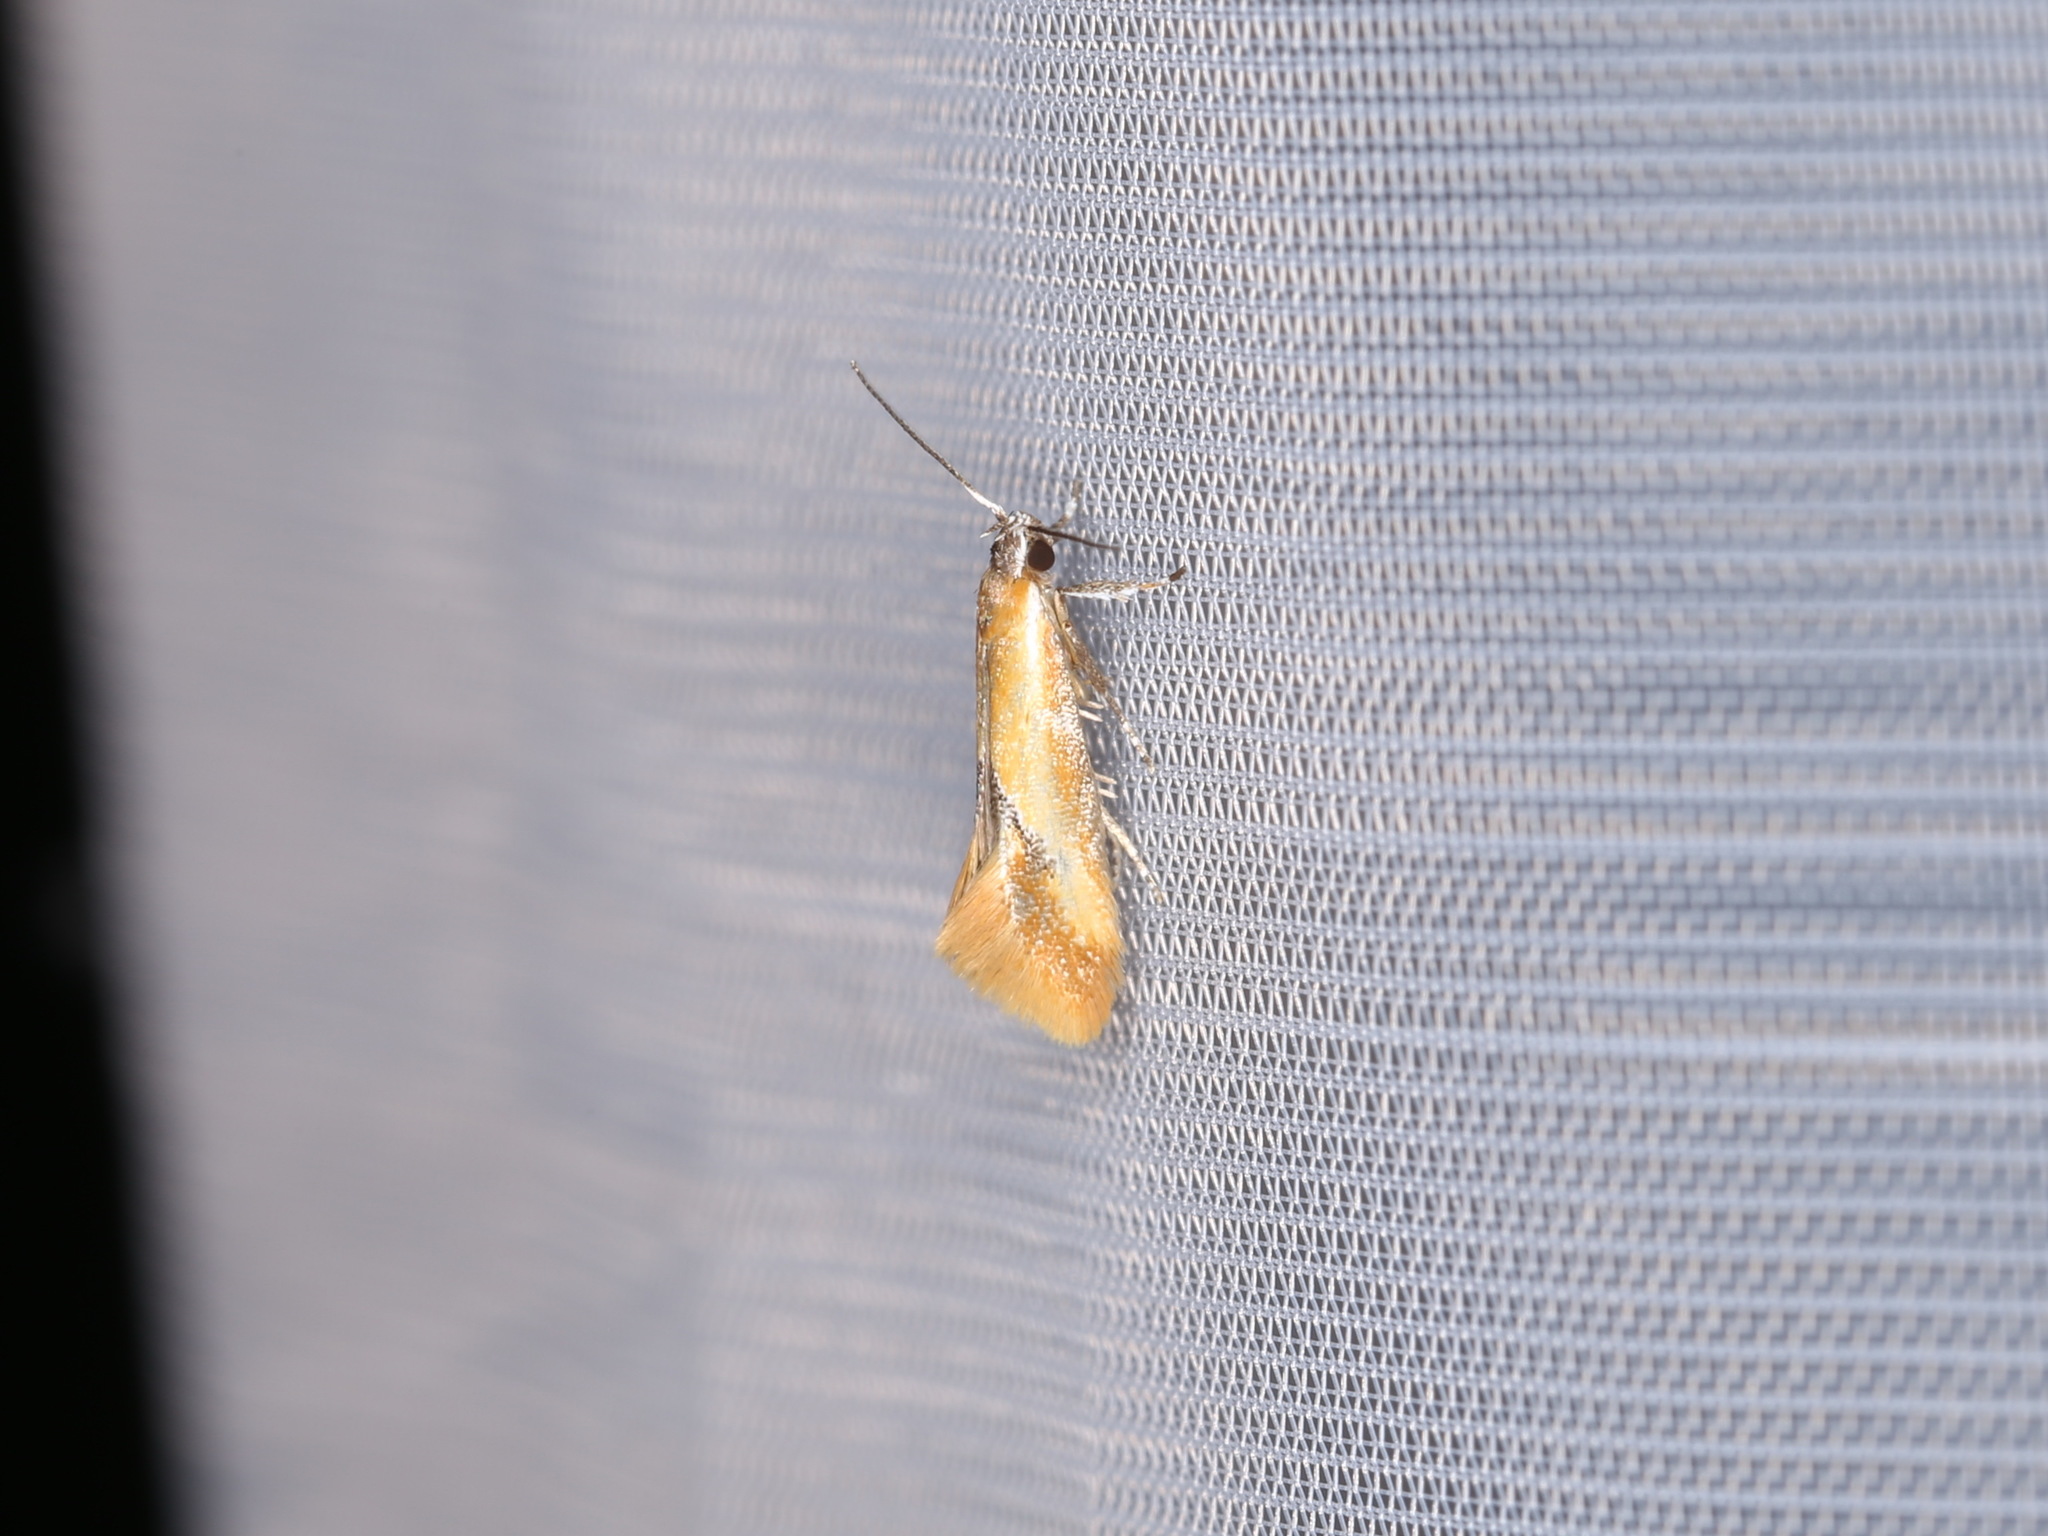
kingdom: Animalia
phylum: Arthropoda
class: Insecta
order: Lepidoptera
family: Oecophoridae
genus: Batia
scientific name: Batia lunaris
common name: Moth
